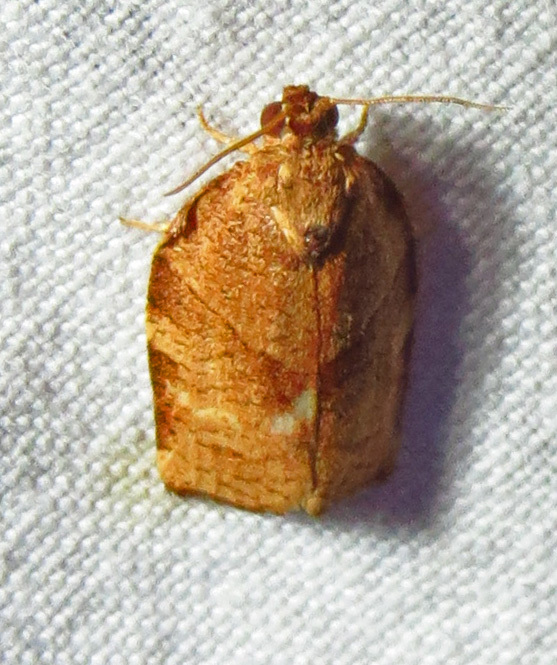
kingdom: Animalia
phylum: Arthropoda
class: Insecta
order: Lepidoptera
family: Tortricidae
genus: Choristoneura
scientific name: Choristoneura rosaceana
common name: Oblique-banded leafroller moth
